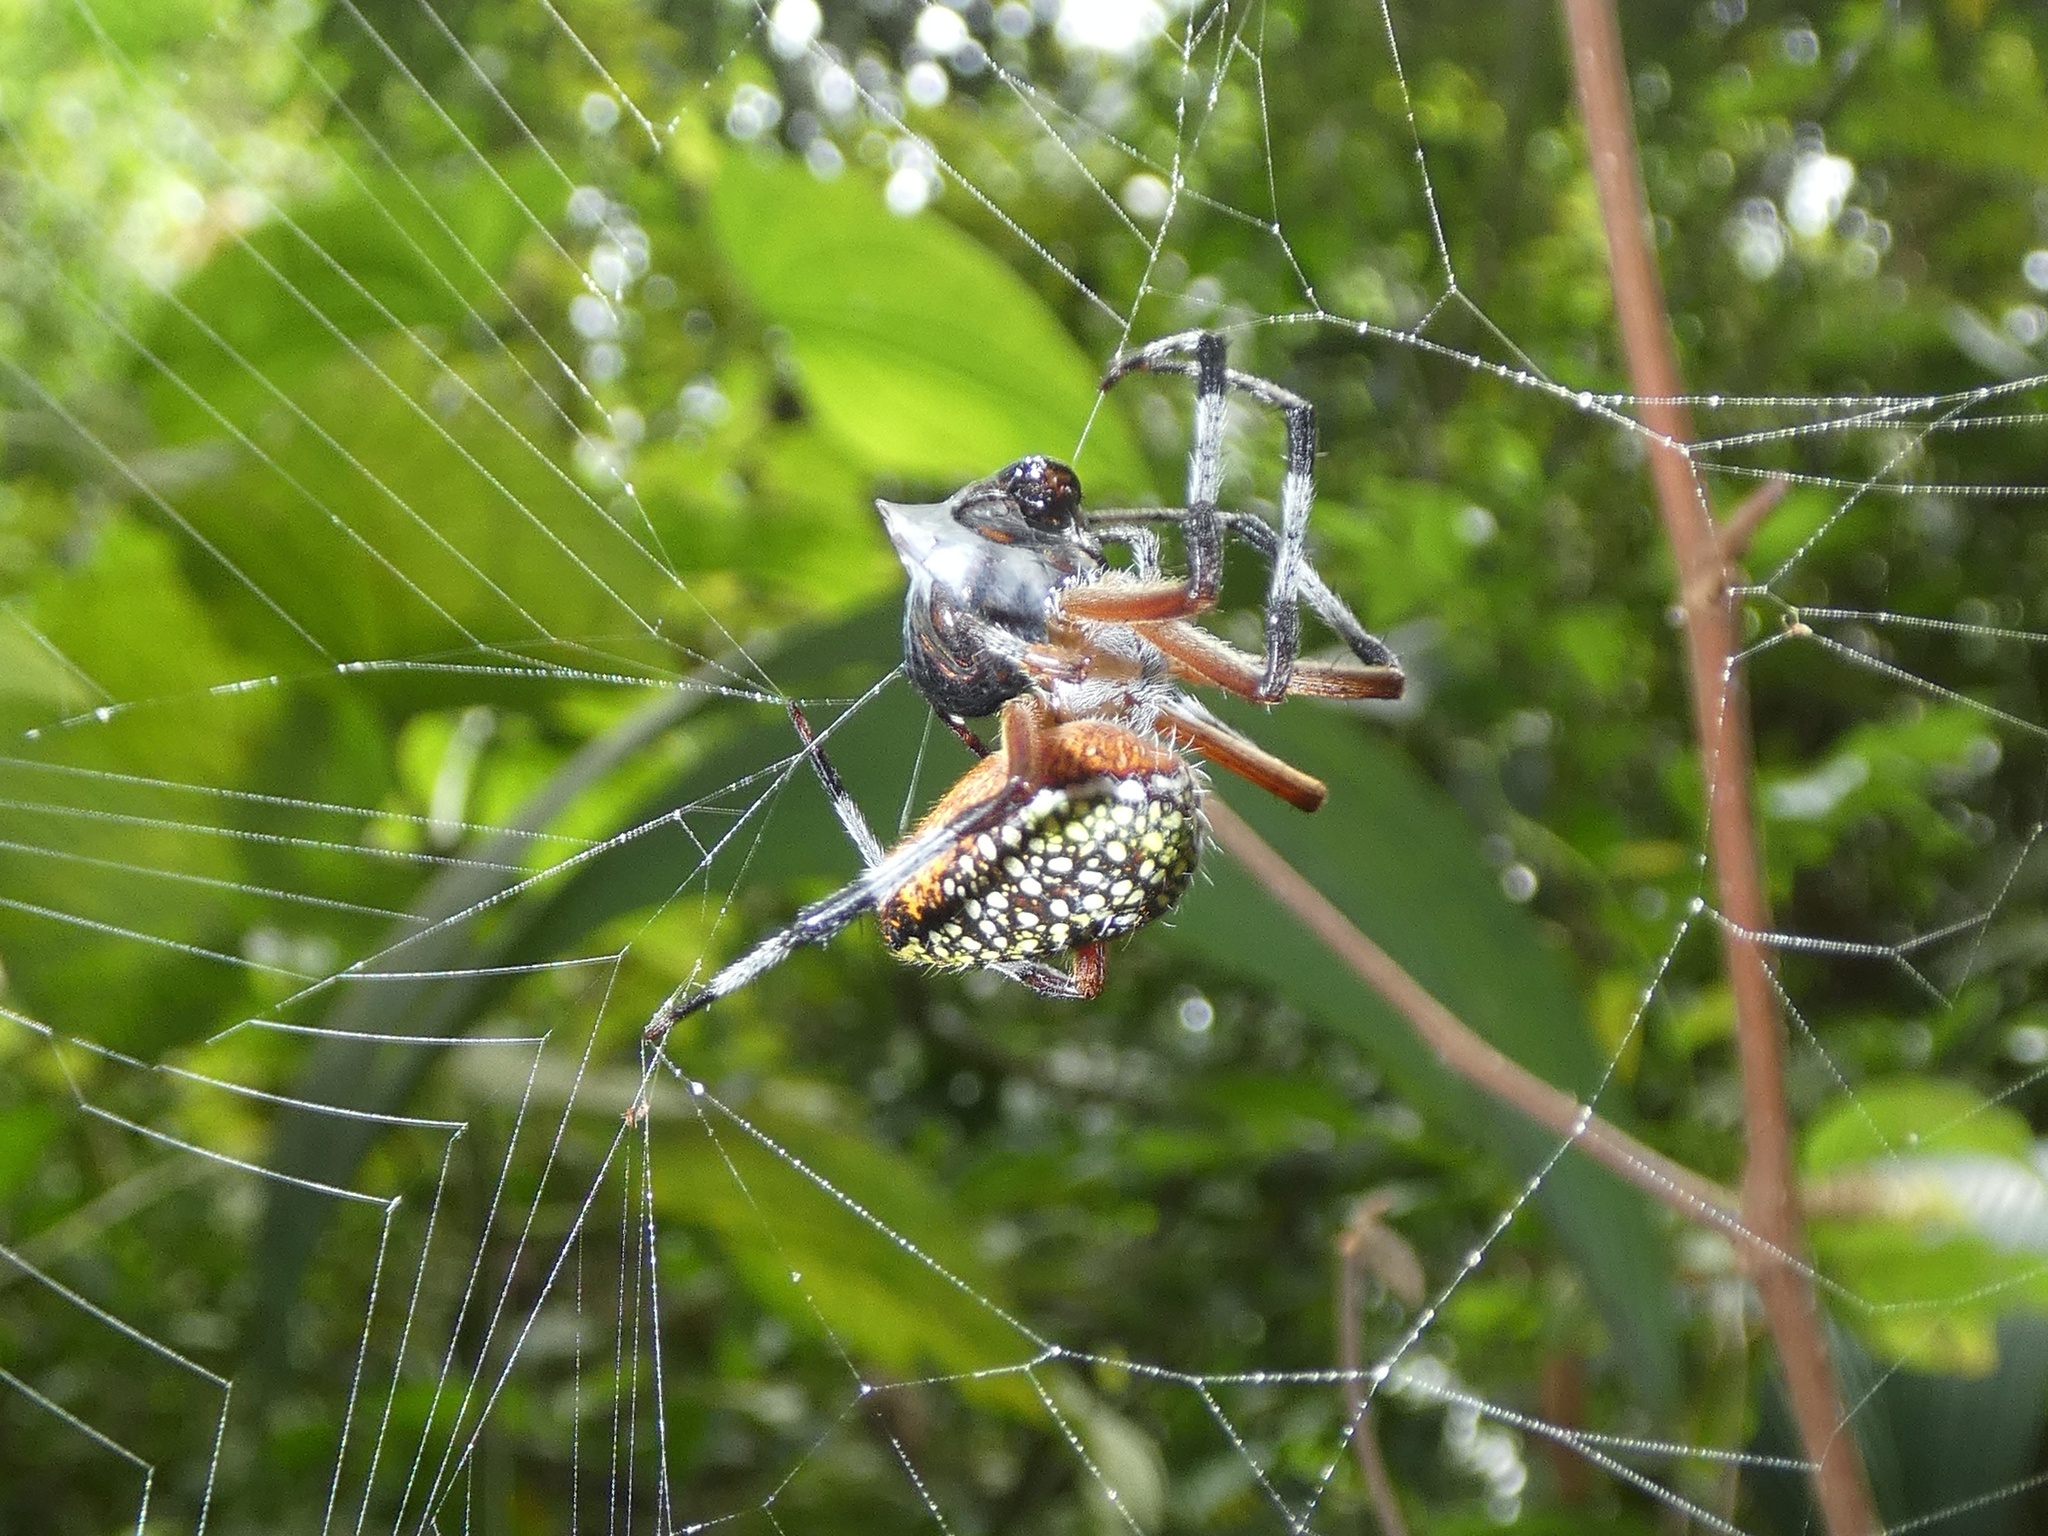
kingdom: Animalia
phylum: Arthropoda
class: Arachnida
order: Araneae
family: Araneidae
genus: Eriophora
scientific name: Eriophora nephiloides
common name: Orb weavers
